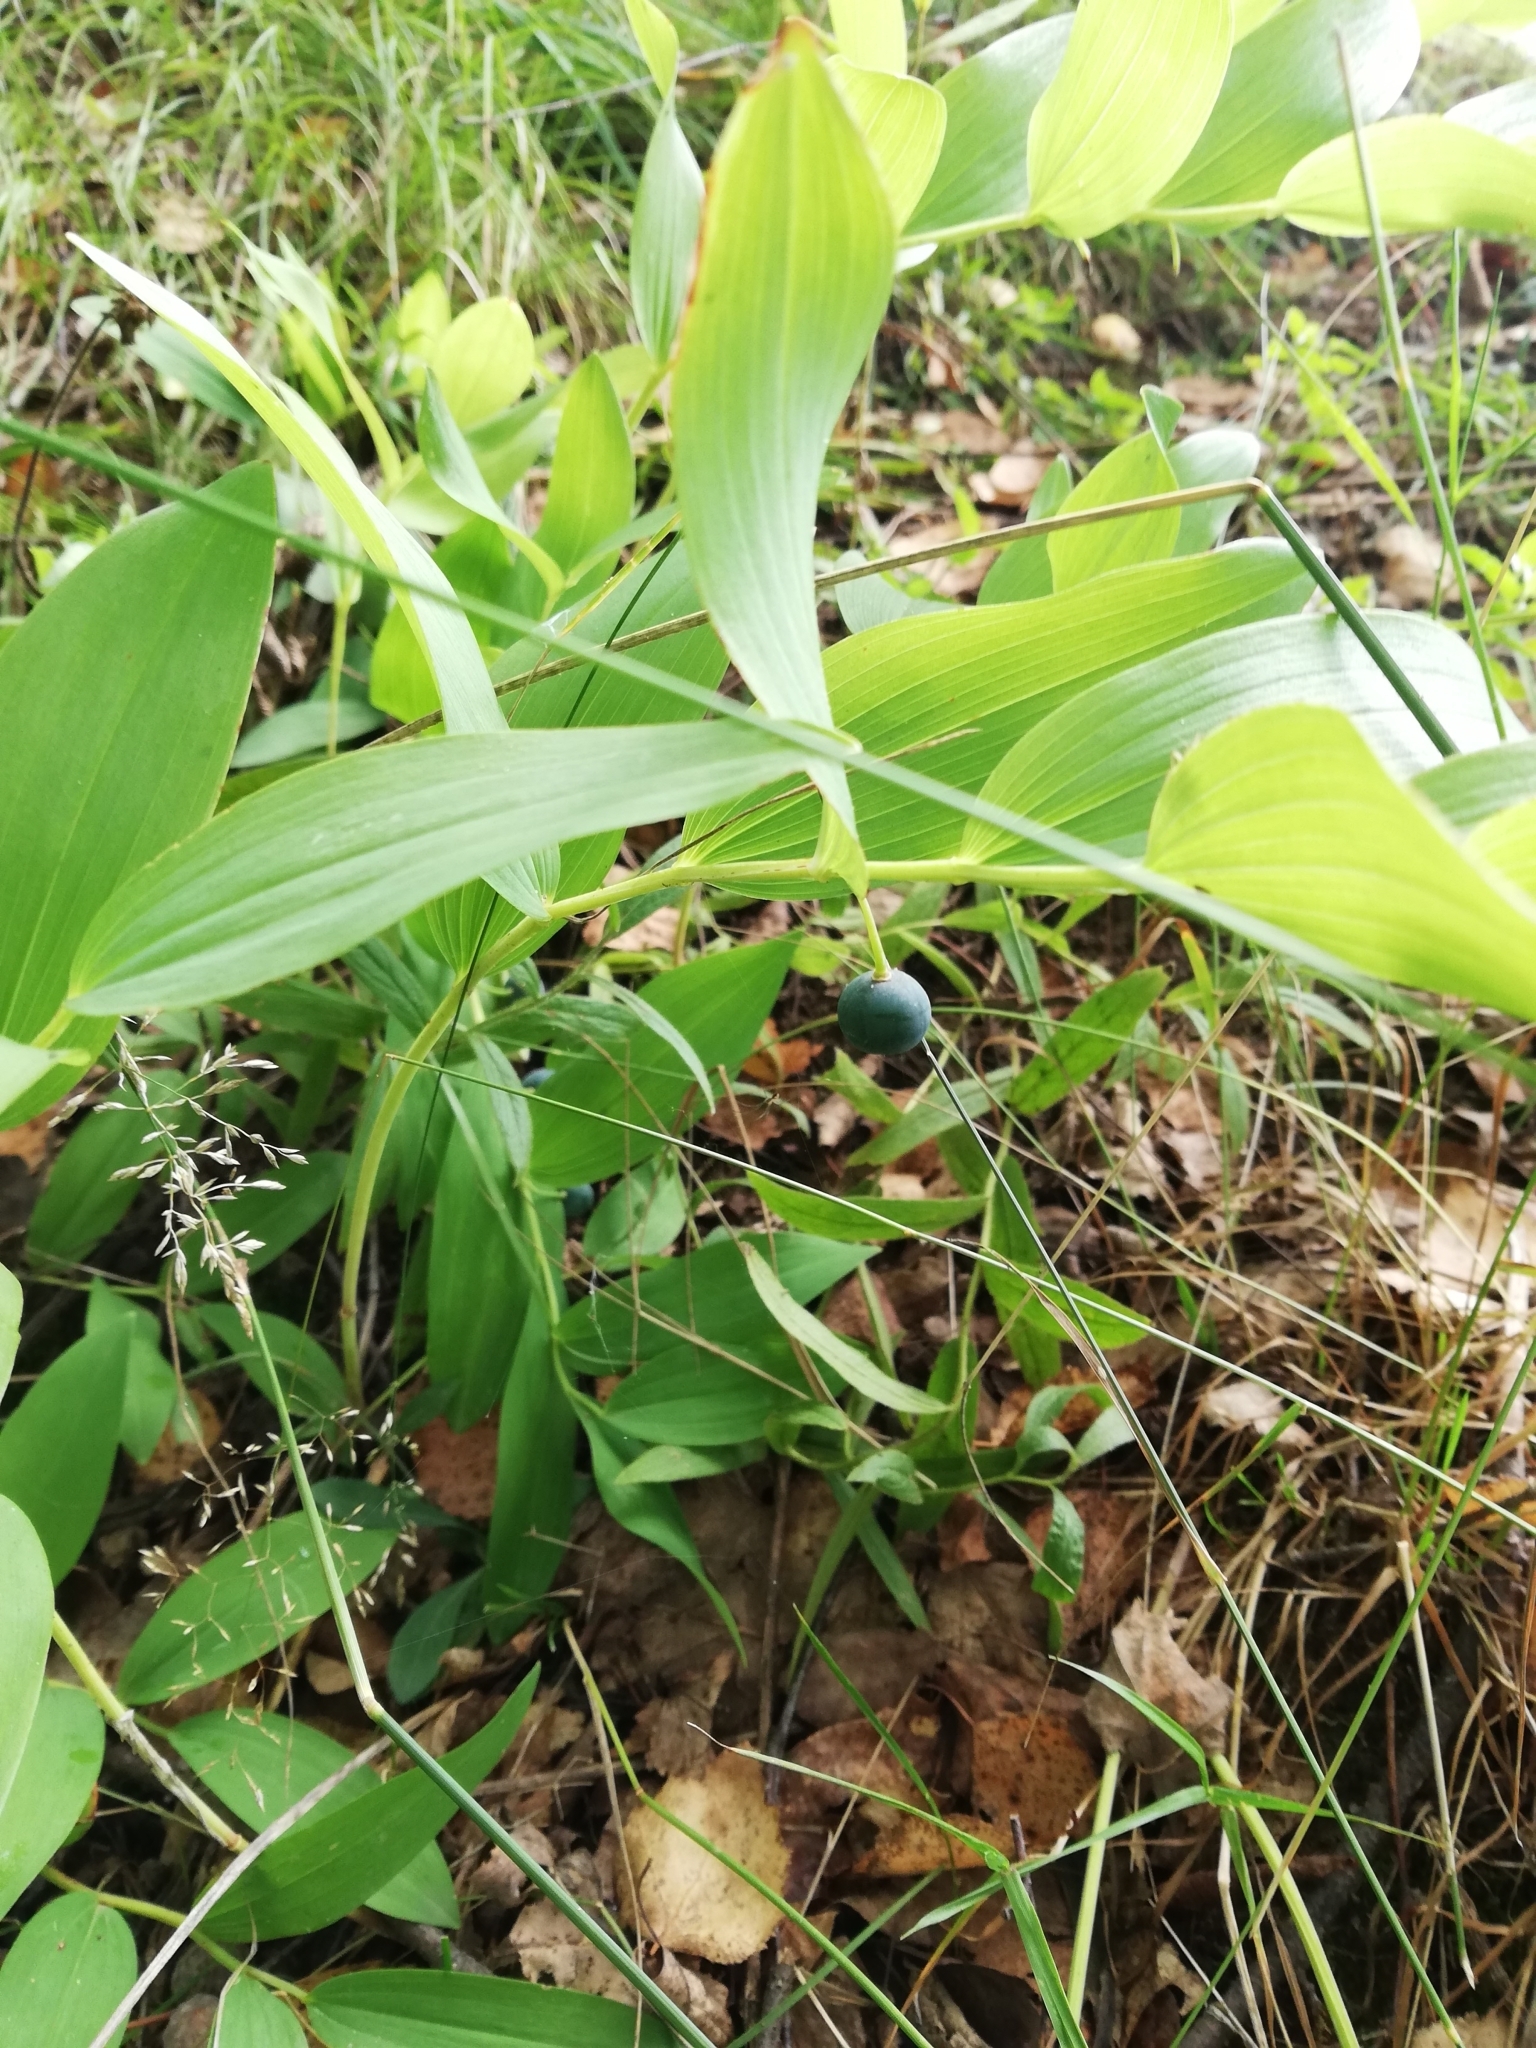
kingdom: Plantae
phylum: Tracheophyta
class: Liliopsida
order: Asparagales
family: Asparagaceae
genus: Polygonatum
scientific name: Polygonatum odoratum
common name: Angular solomon's-seal
